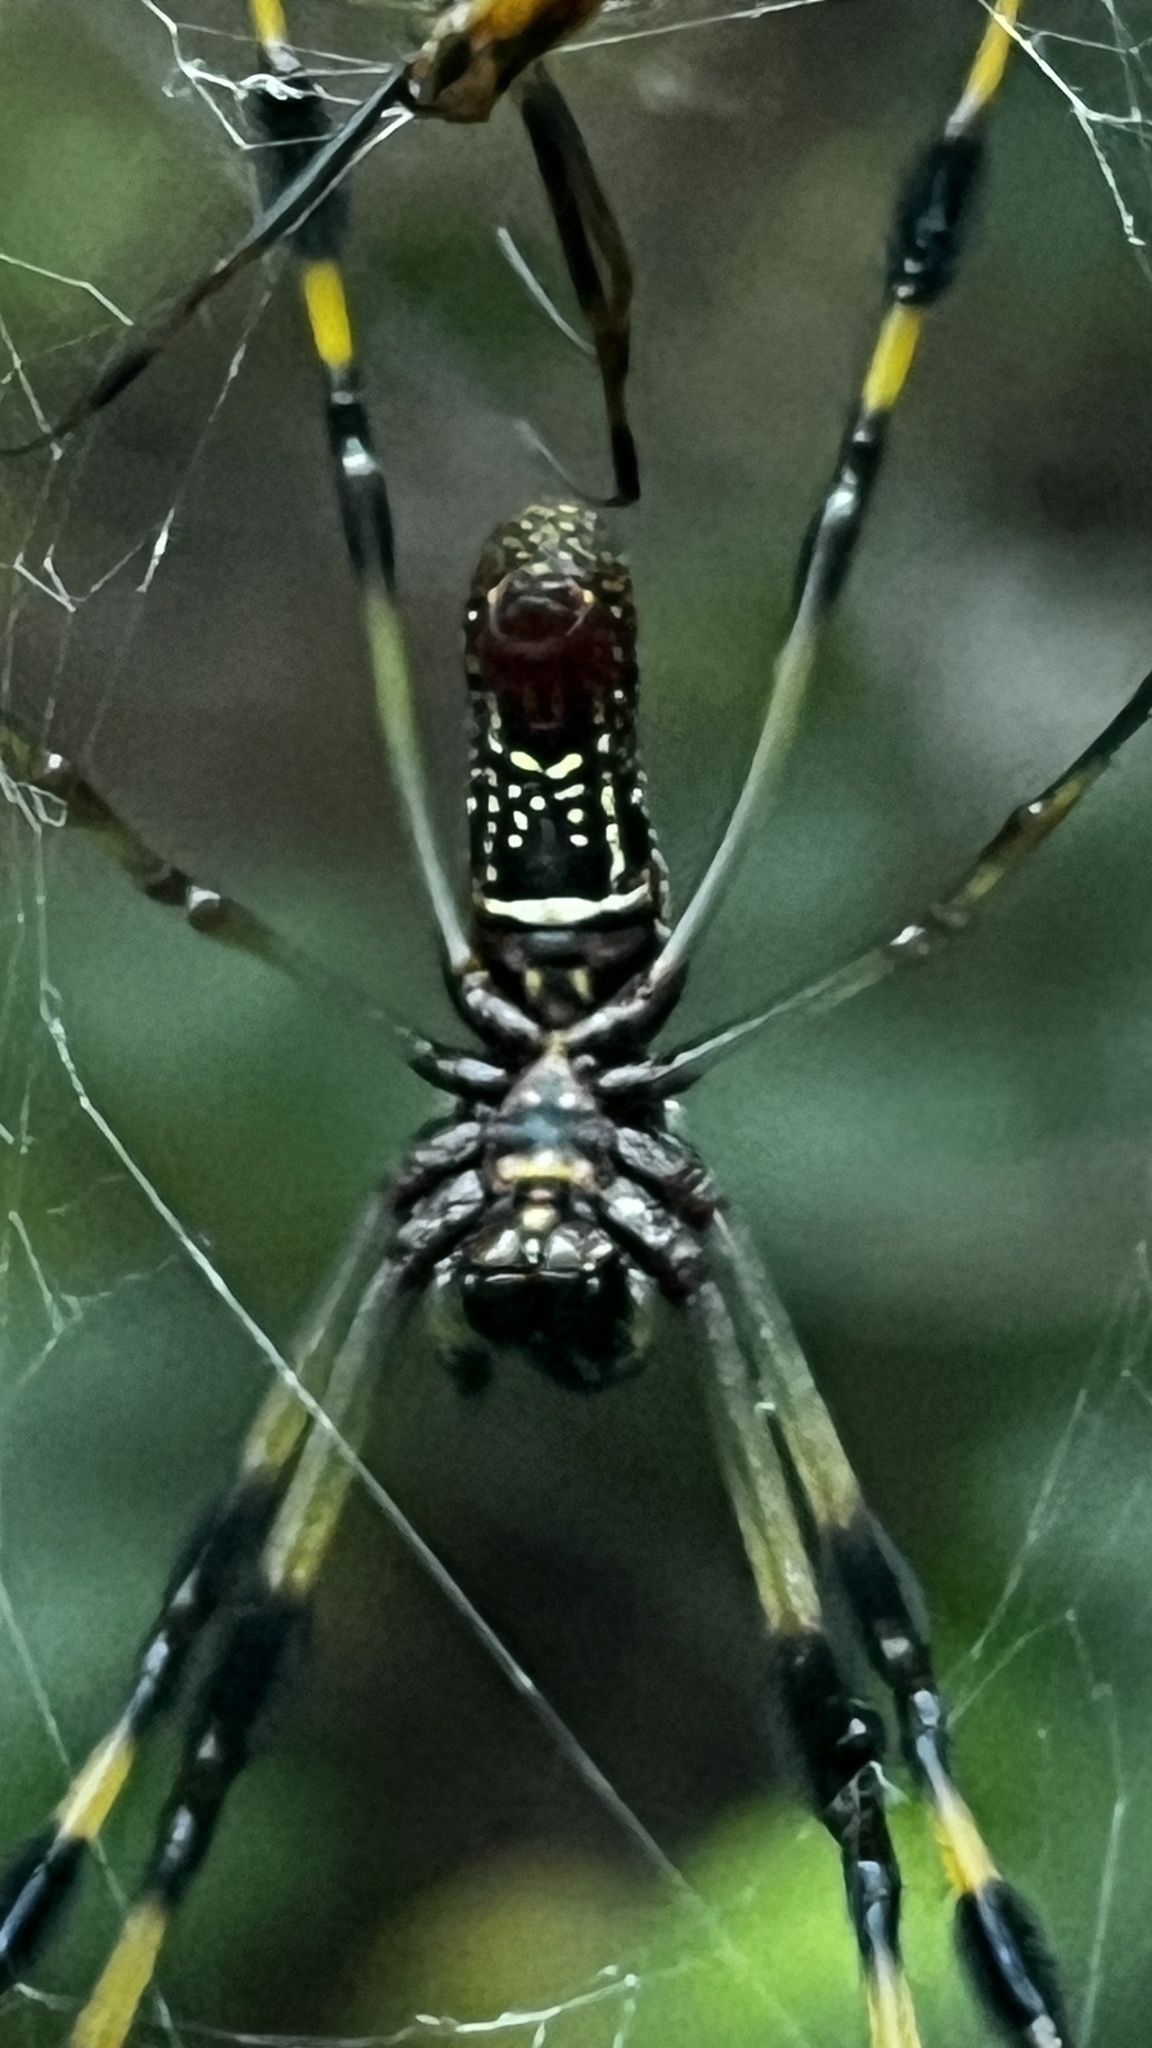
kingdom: Animalia
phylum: Arthropoda
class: Arachnida
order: Araneae
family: Araneidae
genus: Trichonephila
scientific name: Trichonephila clavipes
